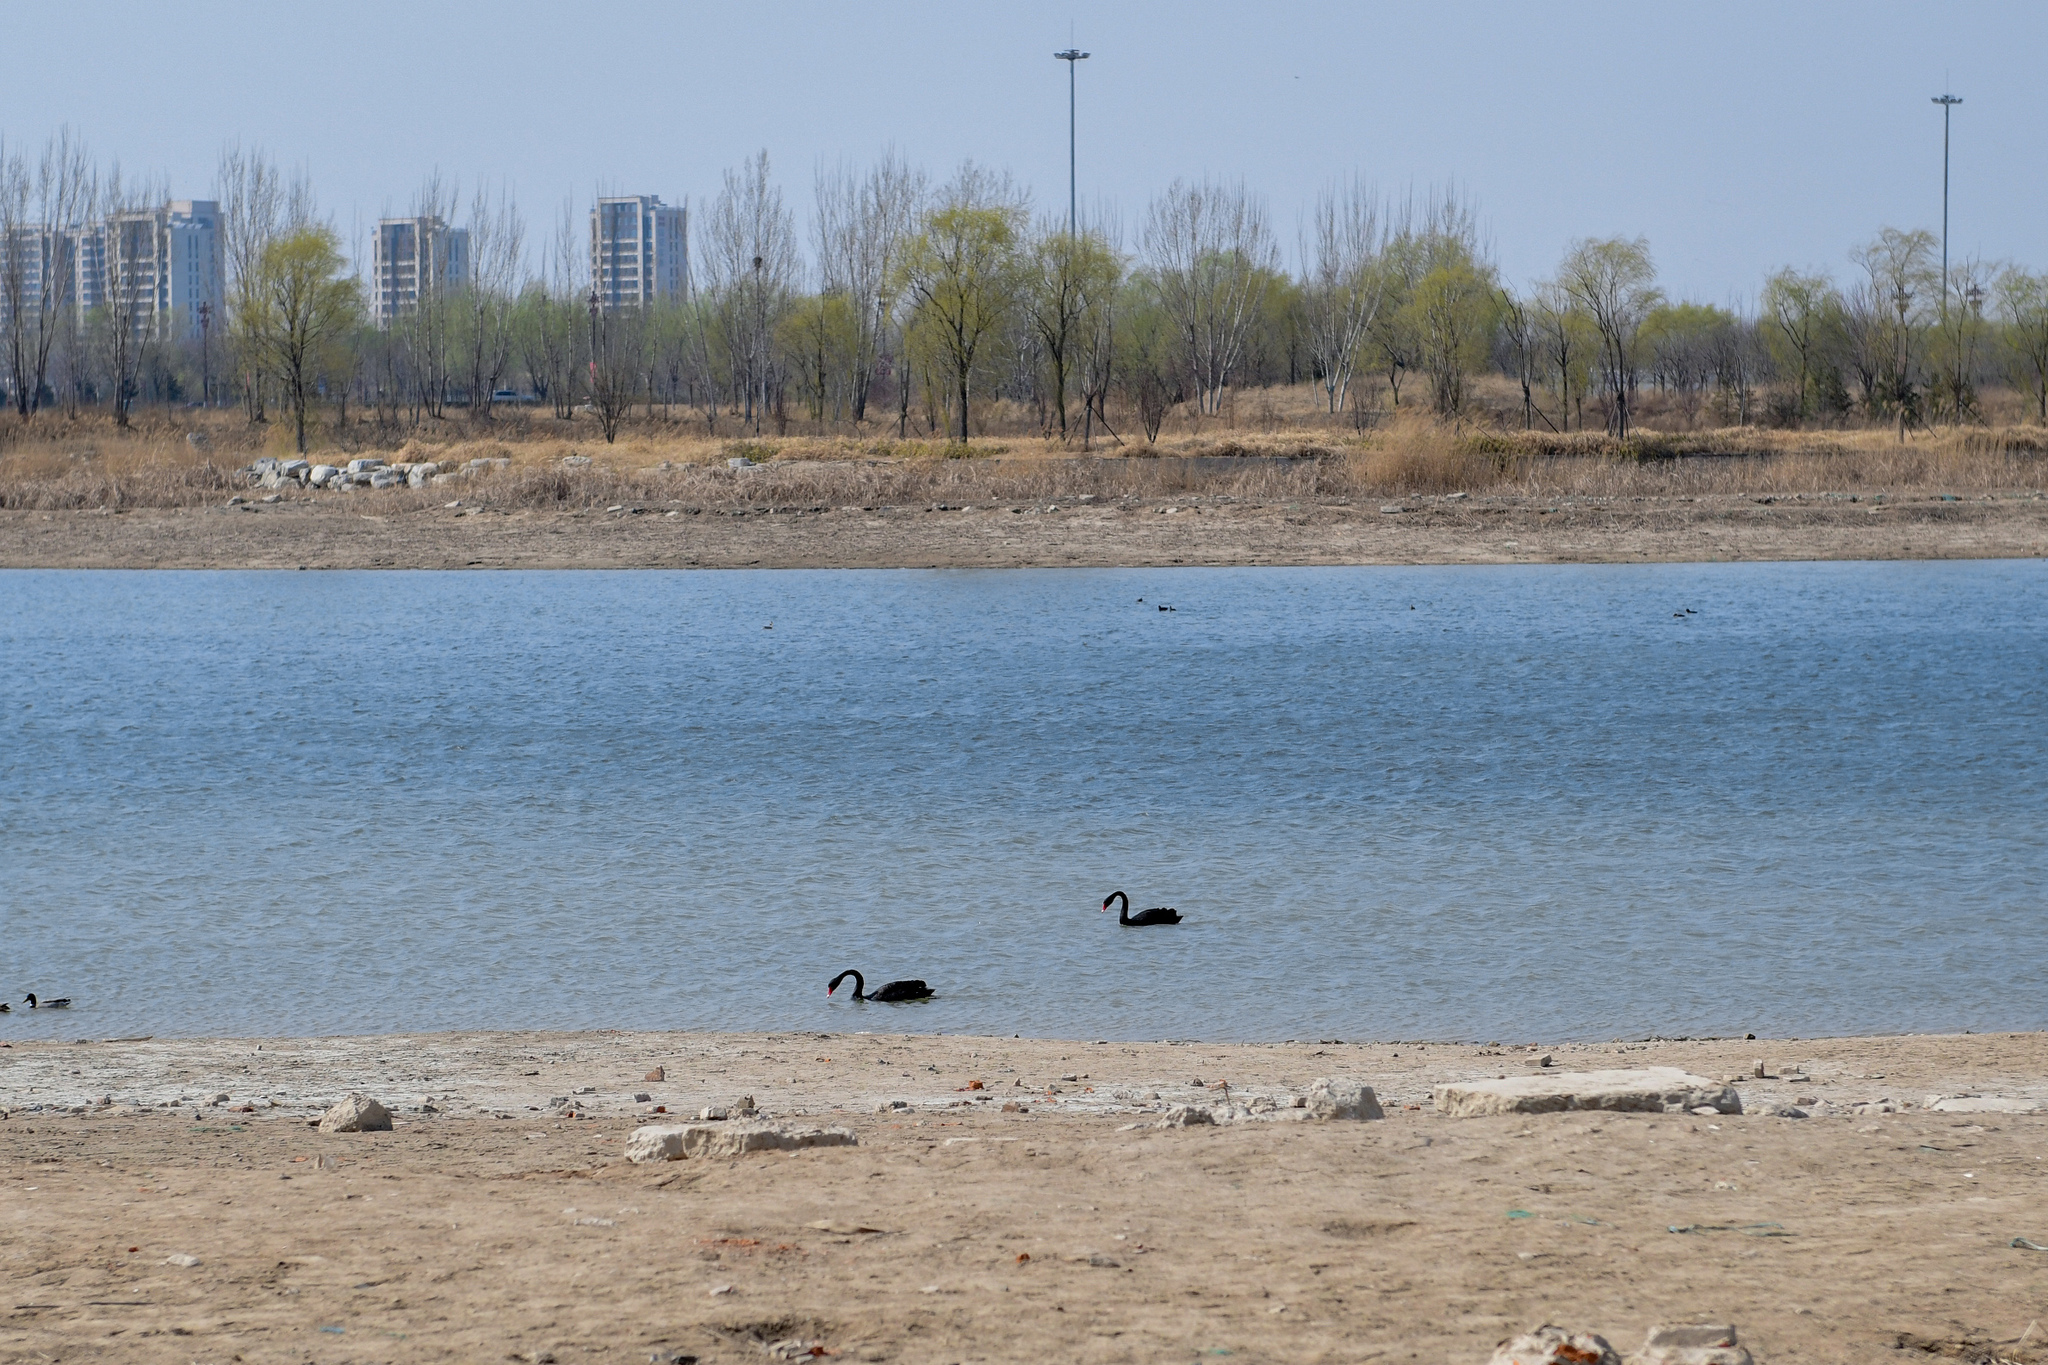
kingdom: Animalia
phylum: Chordata
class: Aves
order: Anseriformes
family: Anatidae
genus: Cygnus
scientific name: Cygnus atratus
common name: Black swan
